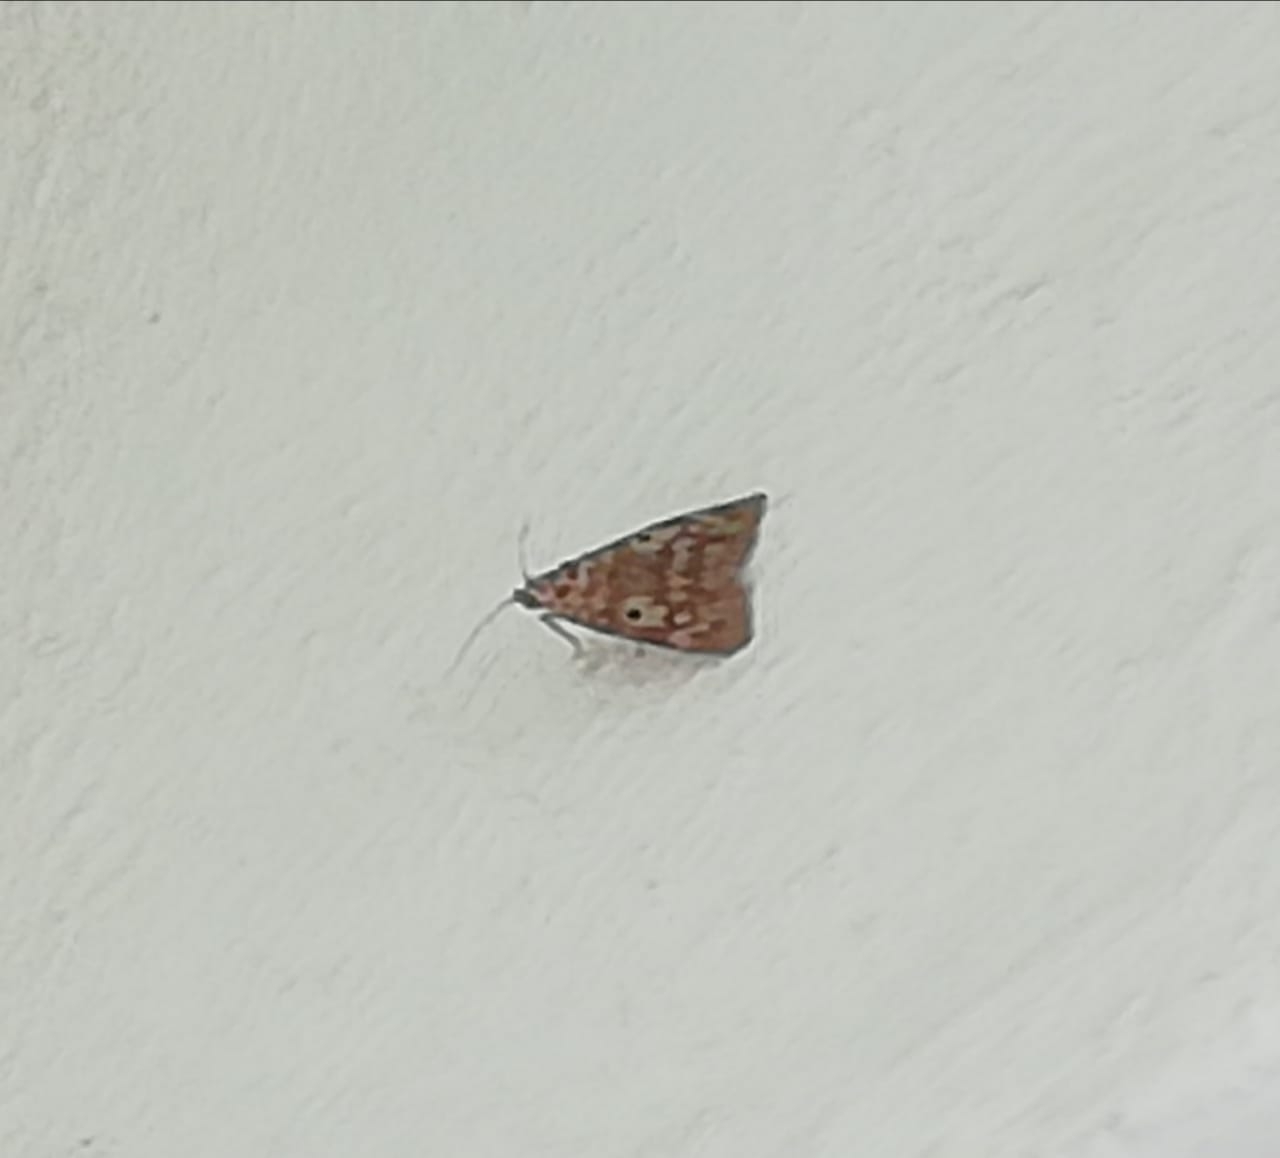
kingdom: Animalia
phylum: Arthropoda
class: Insecta
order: Lepidoptera
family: Erebidae
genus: Digama
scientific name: Digama
